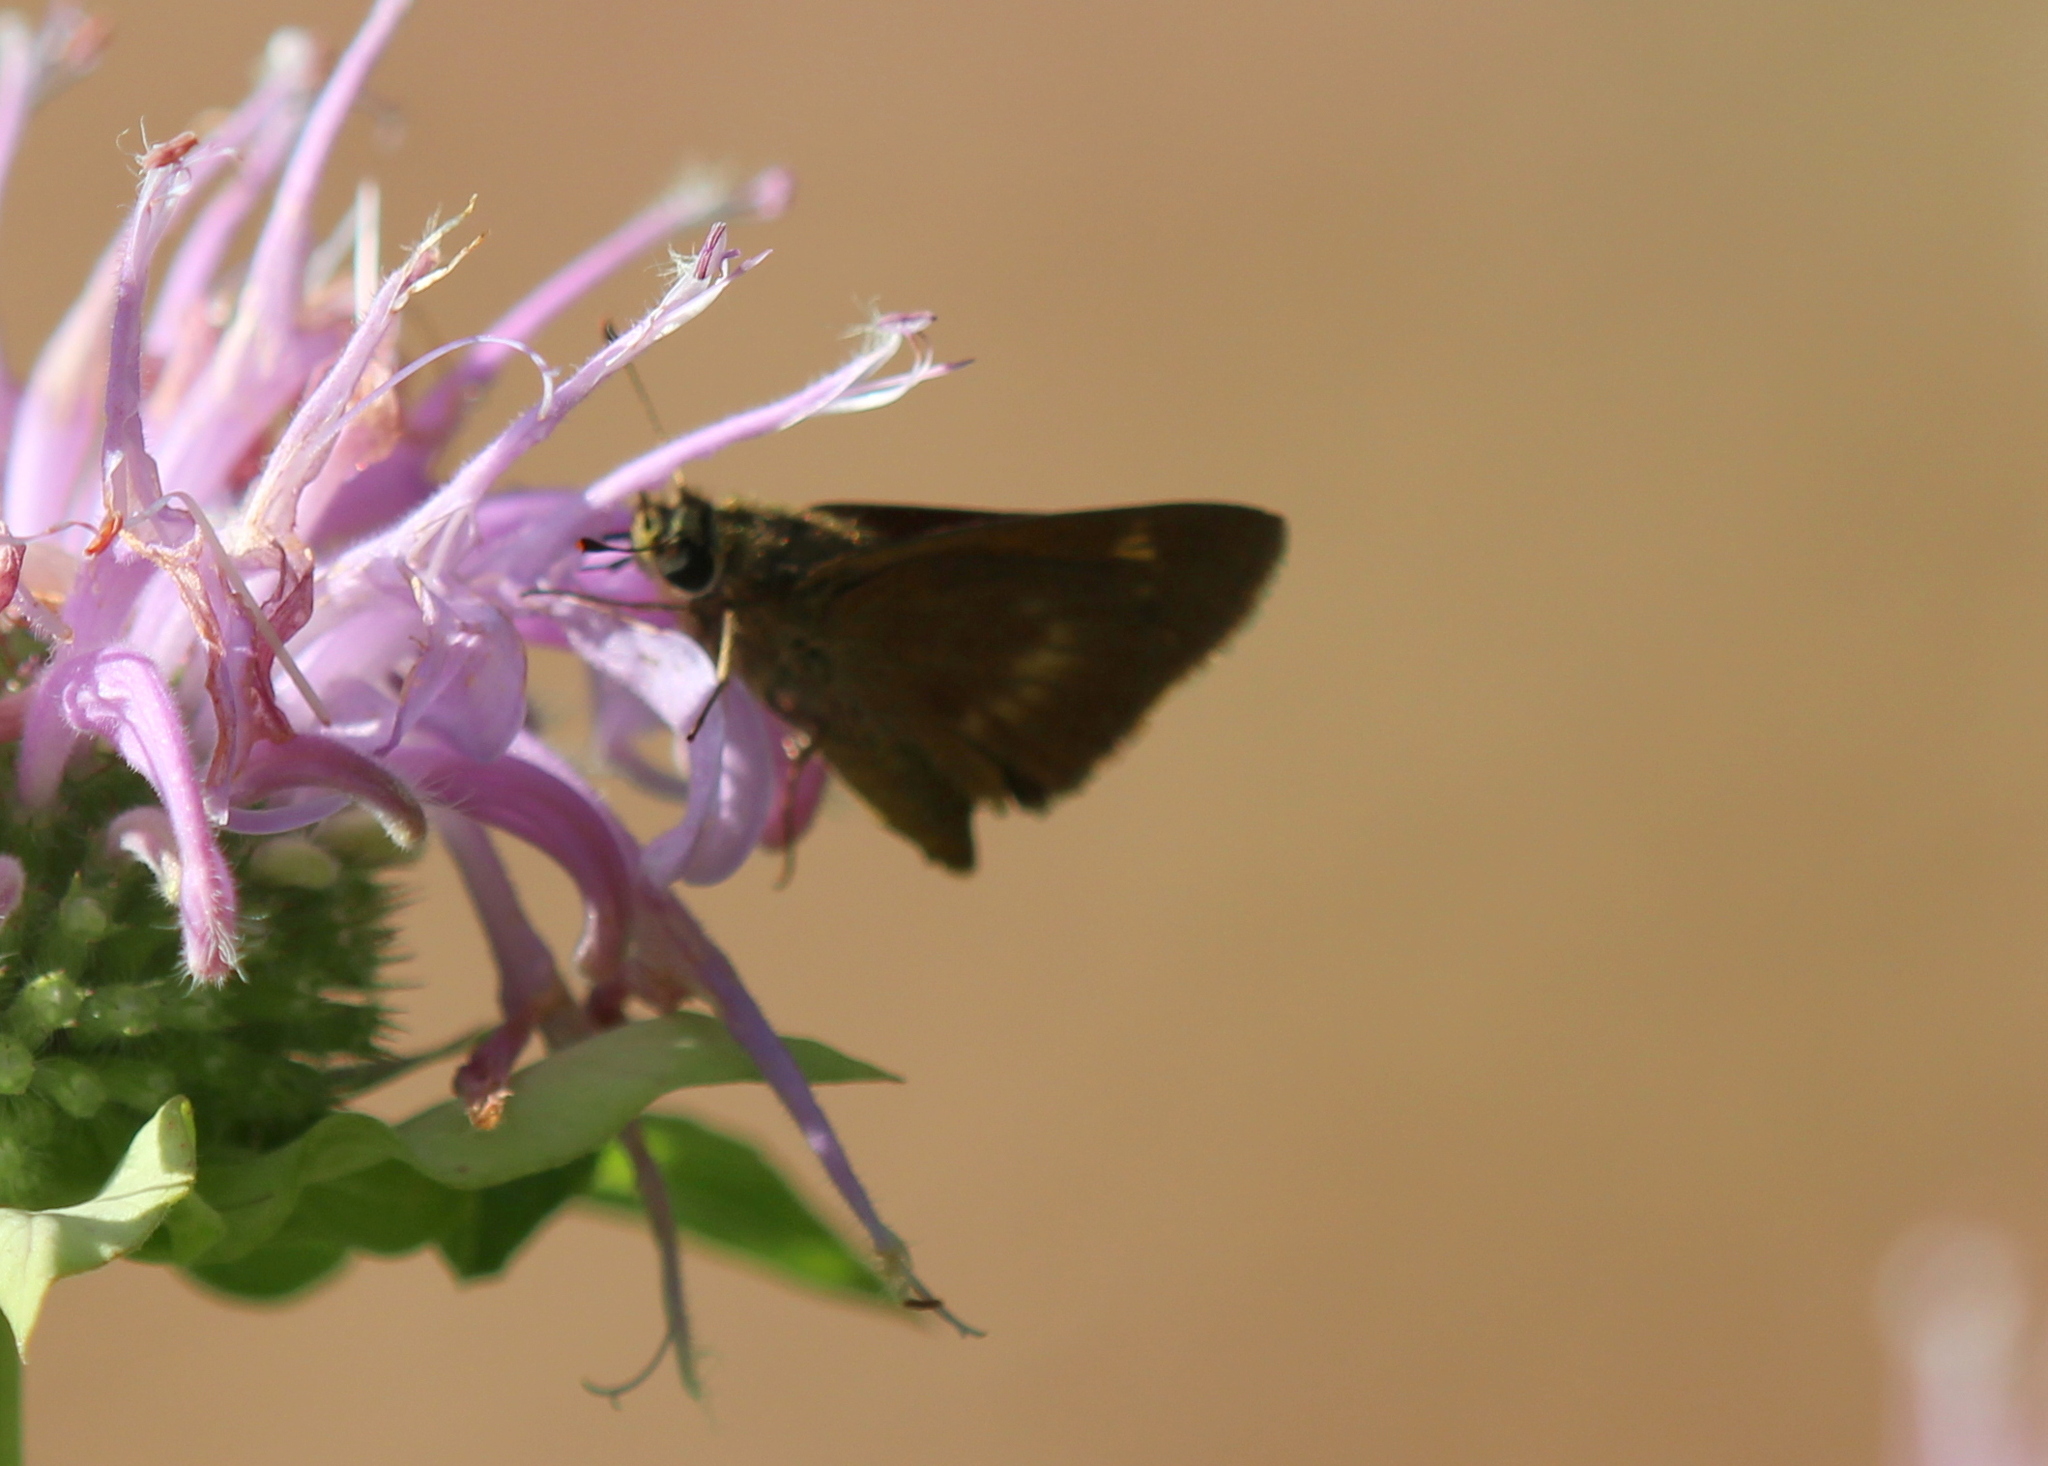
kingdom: Animalia
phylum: Arthropoda
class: Insecta
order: Lepidoptera
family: Hesperiidae
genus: Polites
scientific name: Polites egeremet
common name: Northern broken-dash
